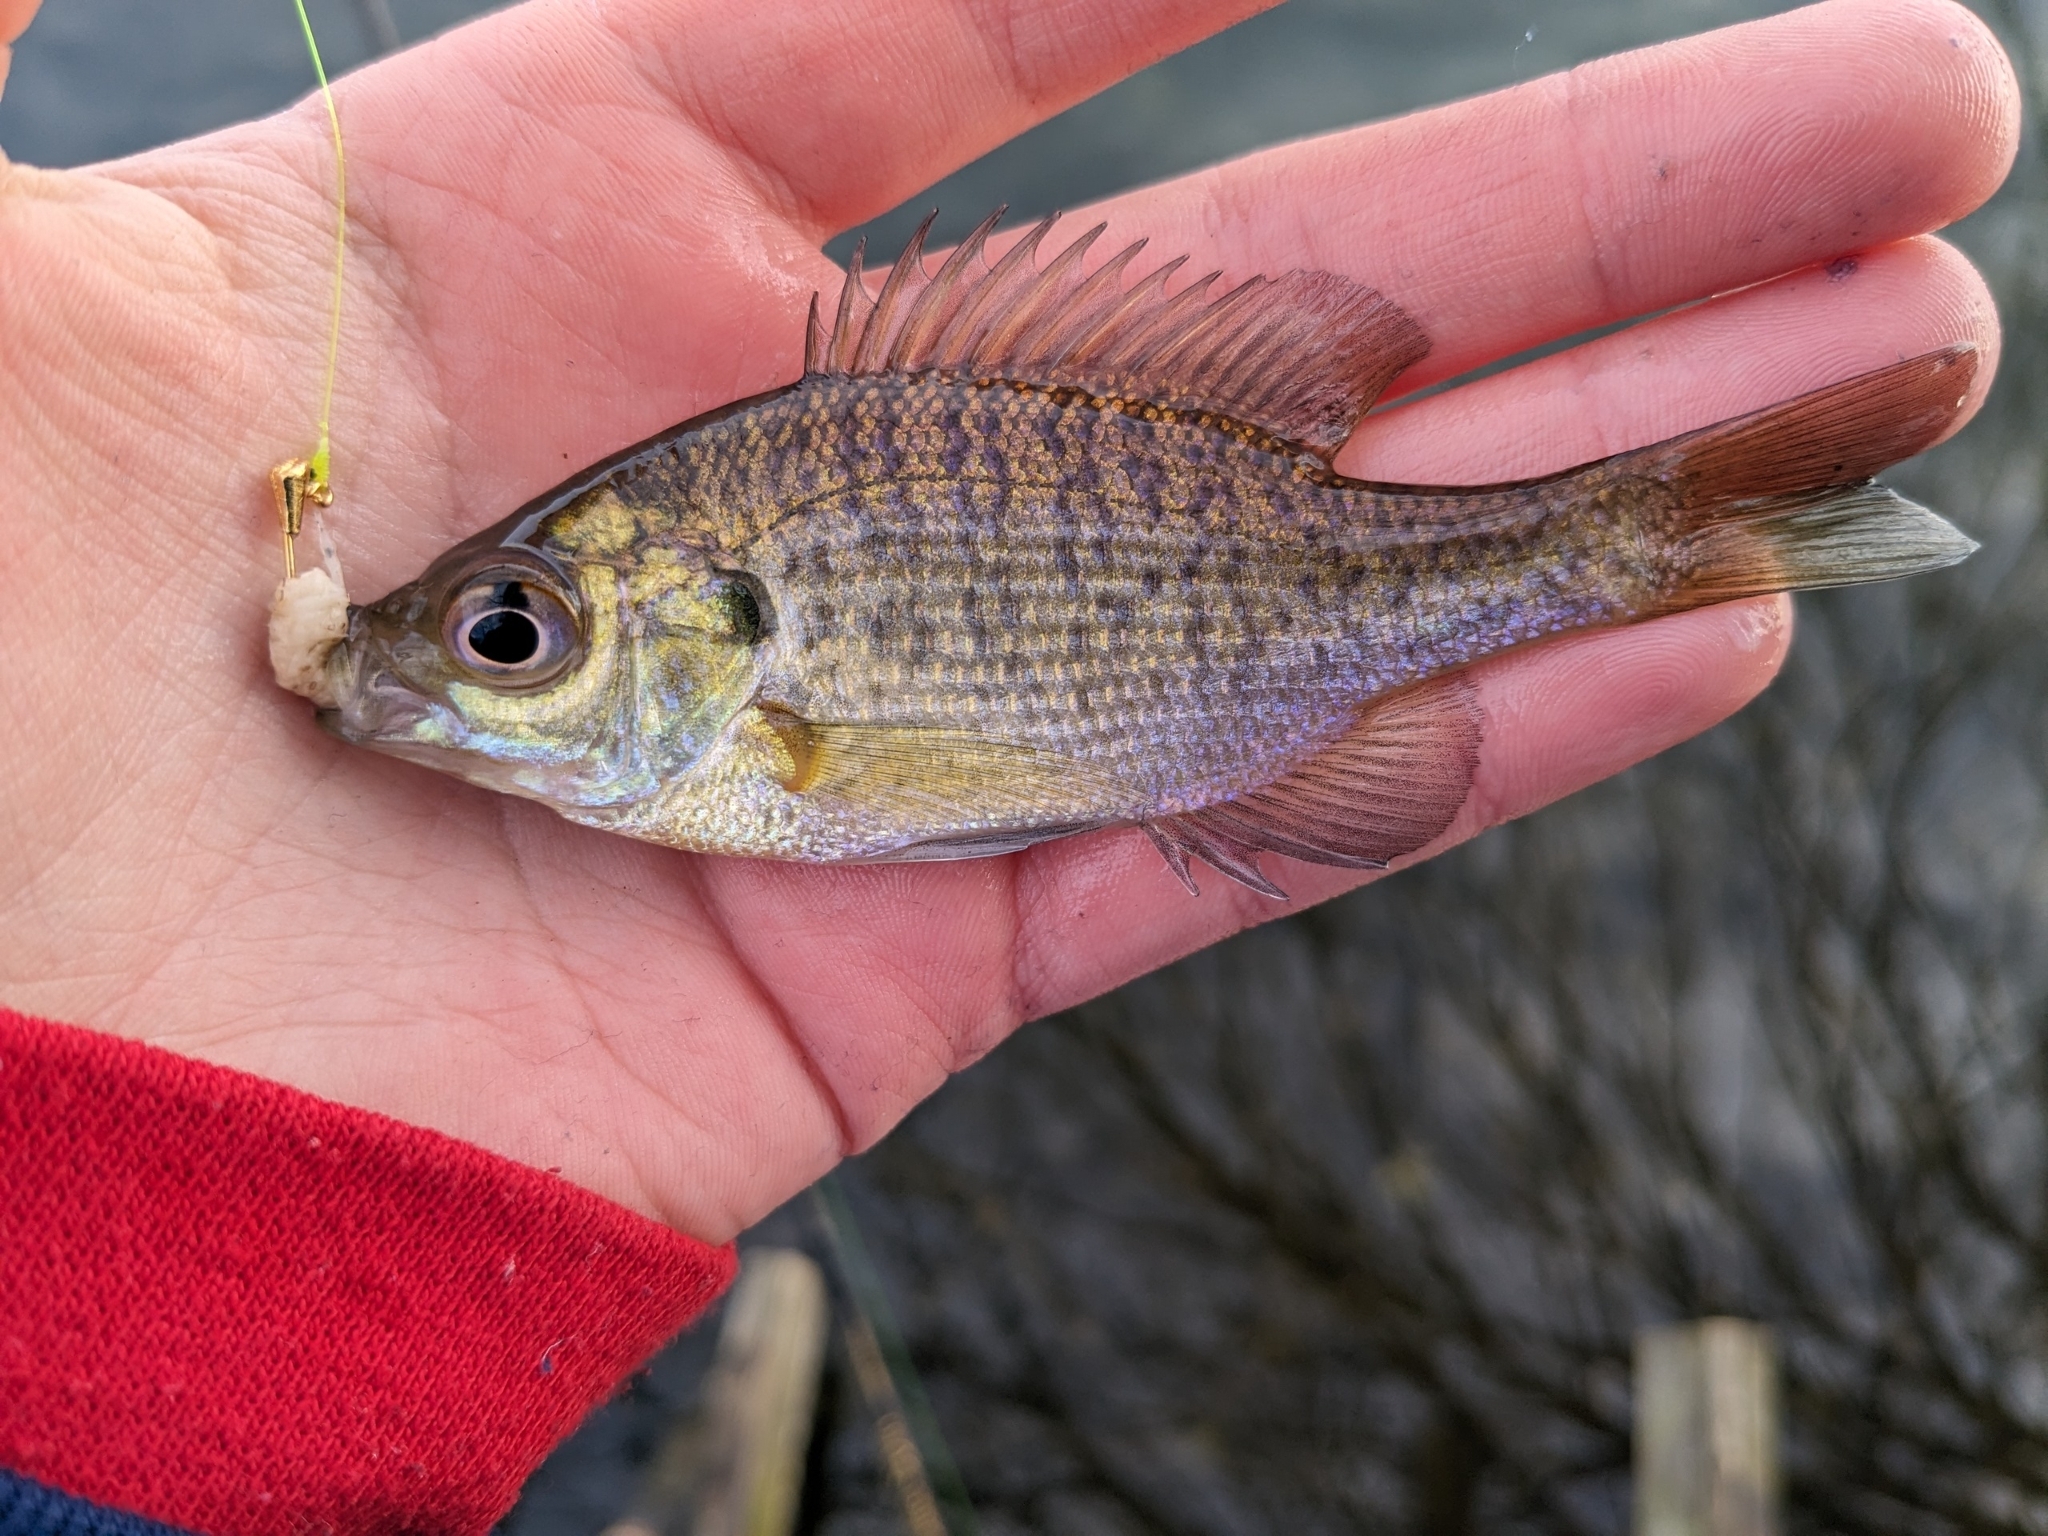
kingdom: Animalia
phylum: Chordata
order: Perciformes
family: Centrarchidae
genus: Lepomis
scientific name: Lepomis macrochirus
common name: Bluegill
